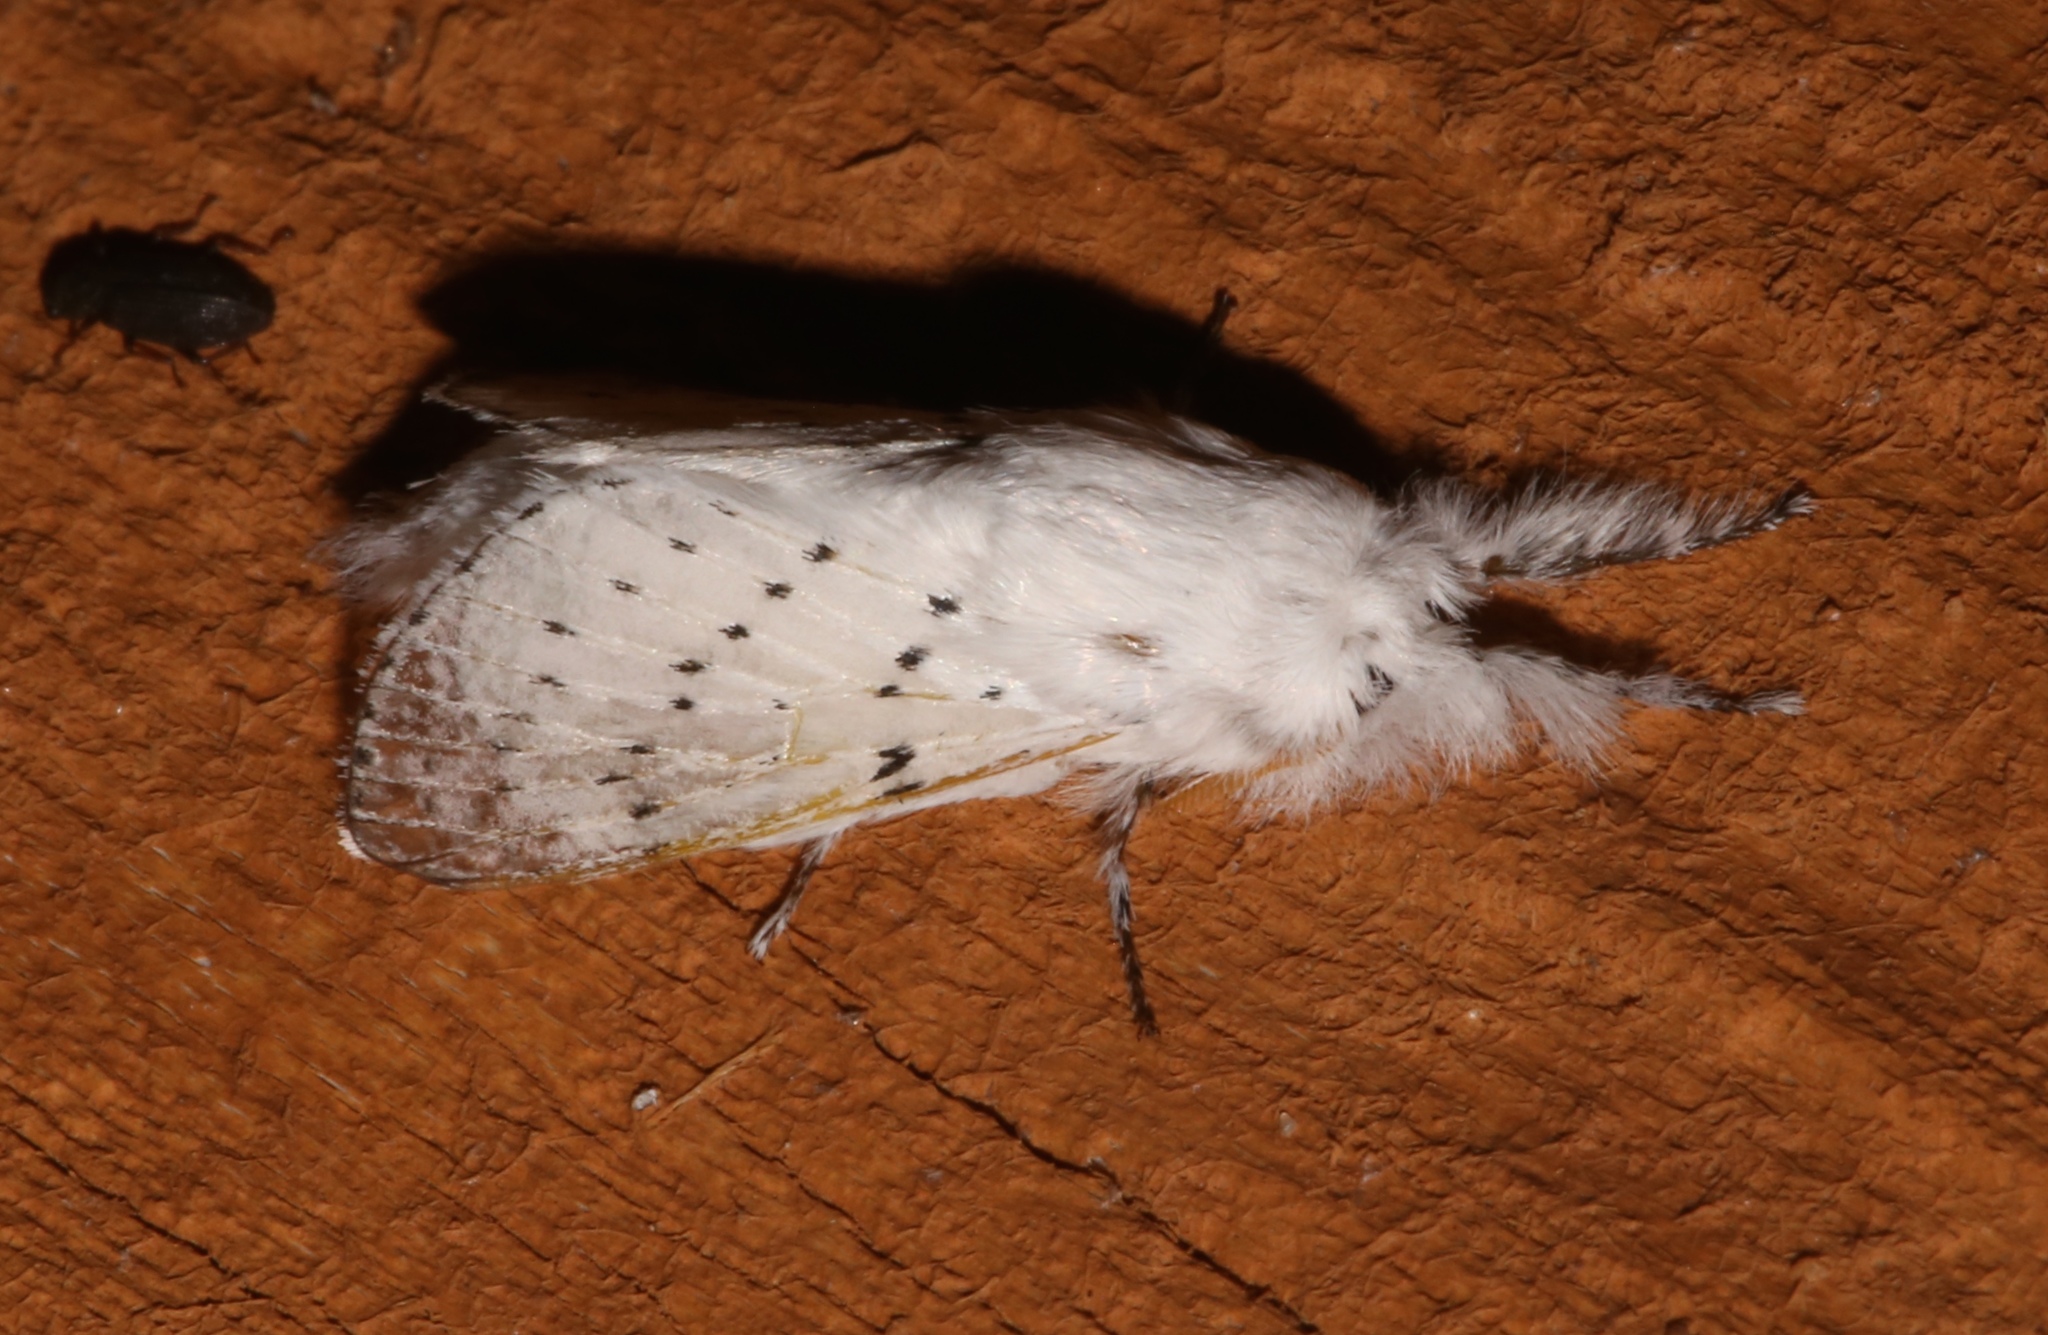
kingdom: Animalia
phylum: Arthropoda
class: Insecta
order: Lepidoptera
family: Lasiocampidae
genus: Artace
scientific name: Artace cribrarius
